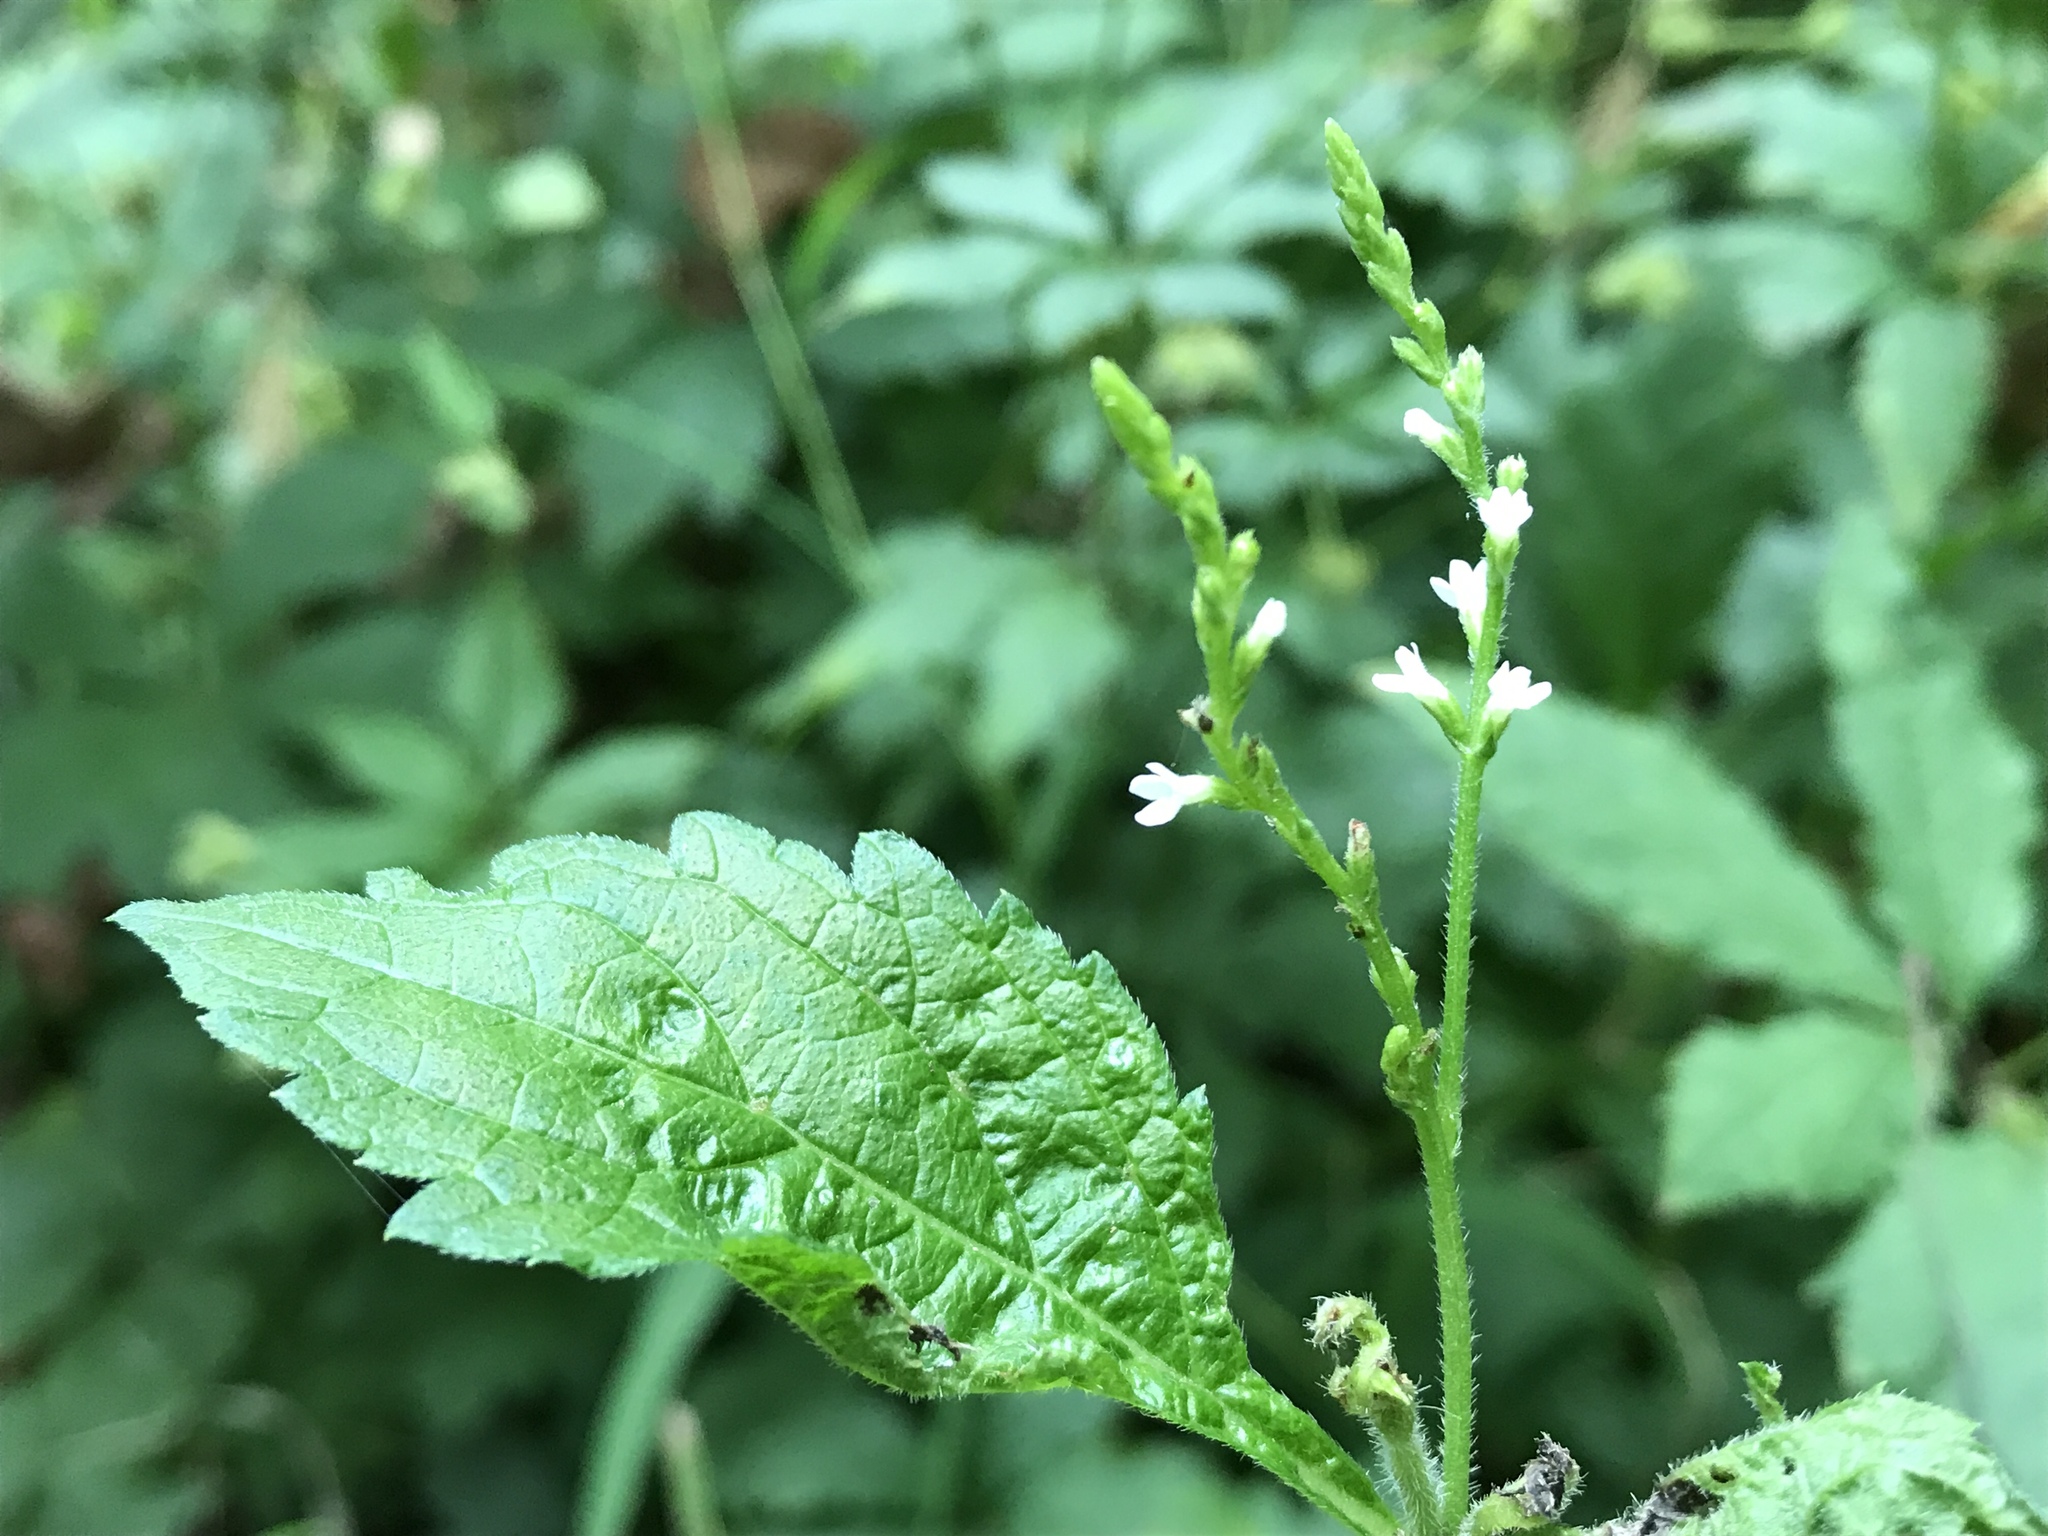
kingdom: Plantae
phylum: Tracheophyta
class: Magnoliopsida
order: Lamiales
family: Verbenaceae
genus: Verbena
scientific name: Verbena urticifolia
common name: Nettle-leaved vervain
